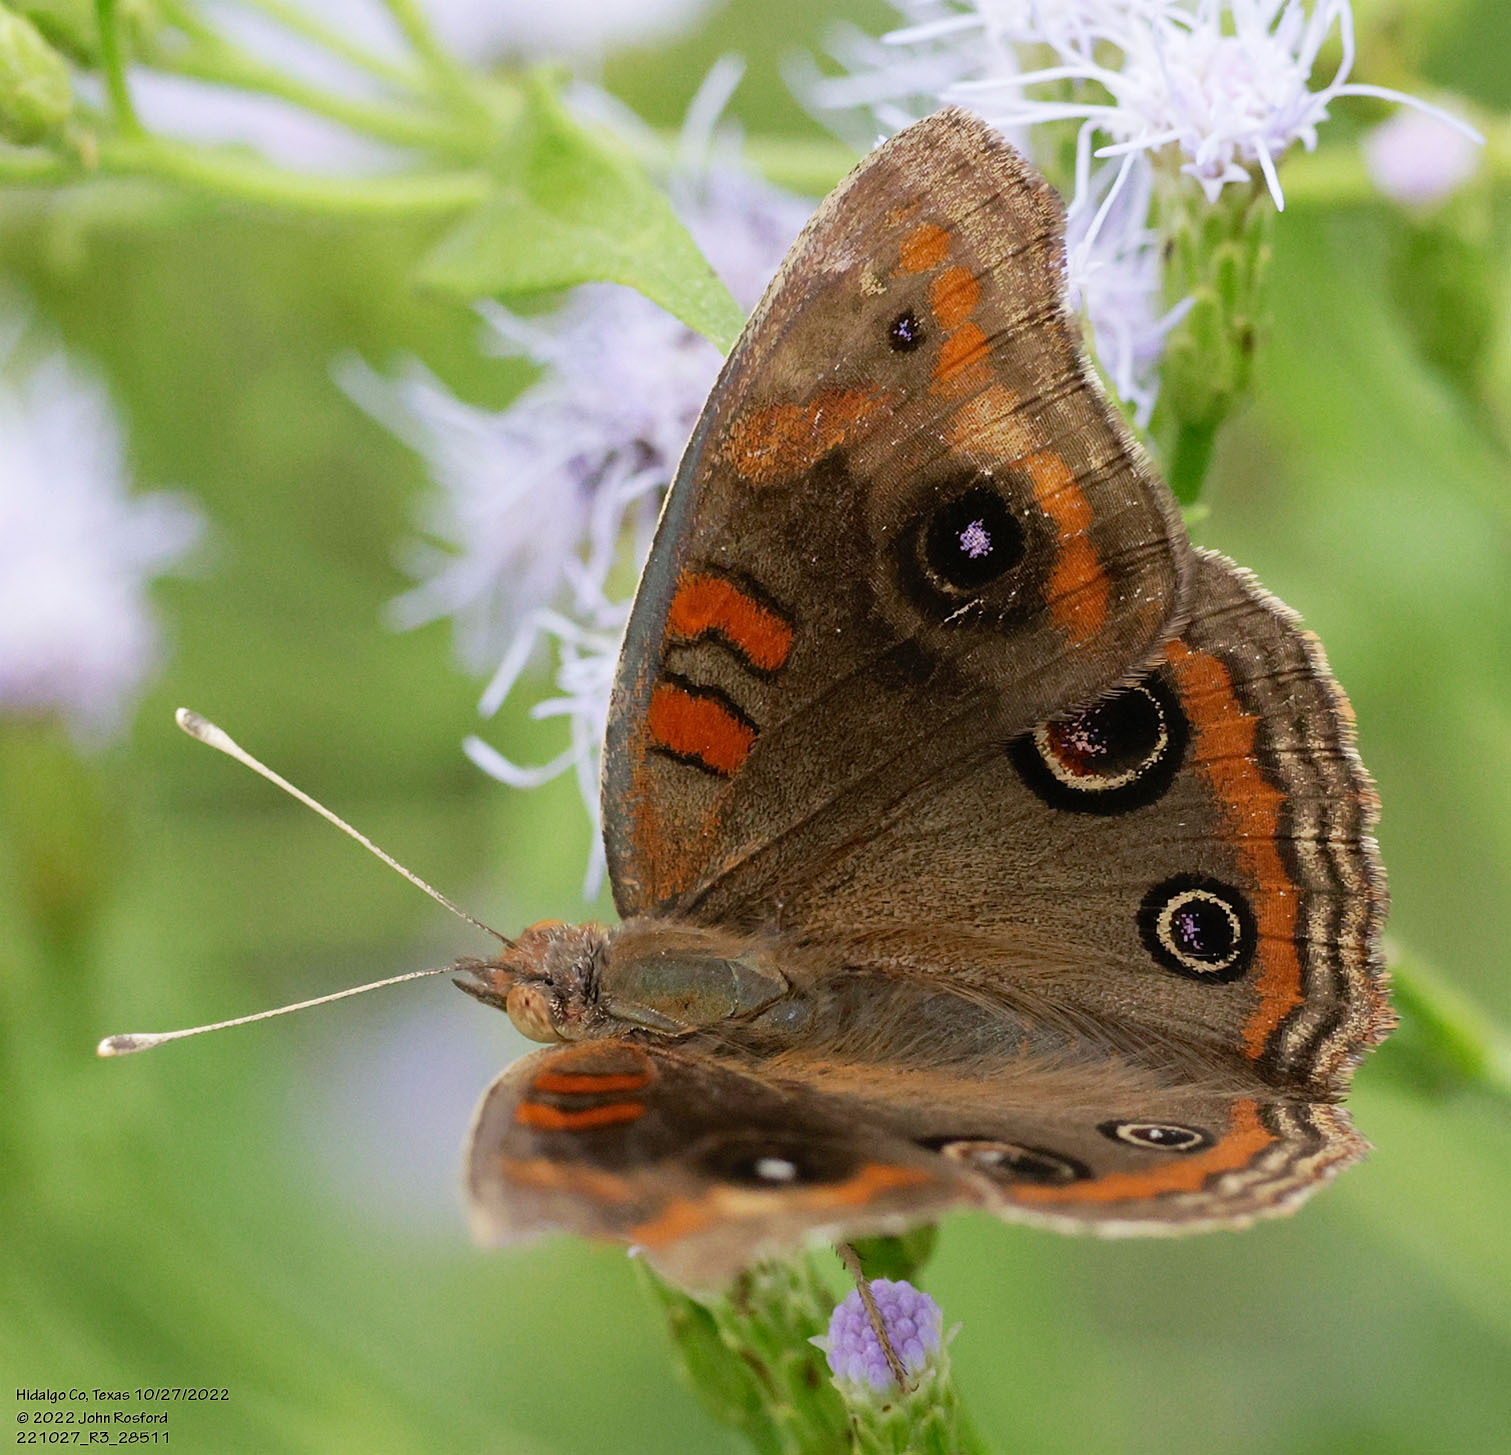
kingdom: Animalia
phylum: Arthropoda
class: Insecta
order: Lepidoptera
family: Nymphalidae
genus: Junonia
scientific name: Junonia stemosa
